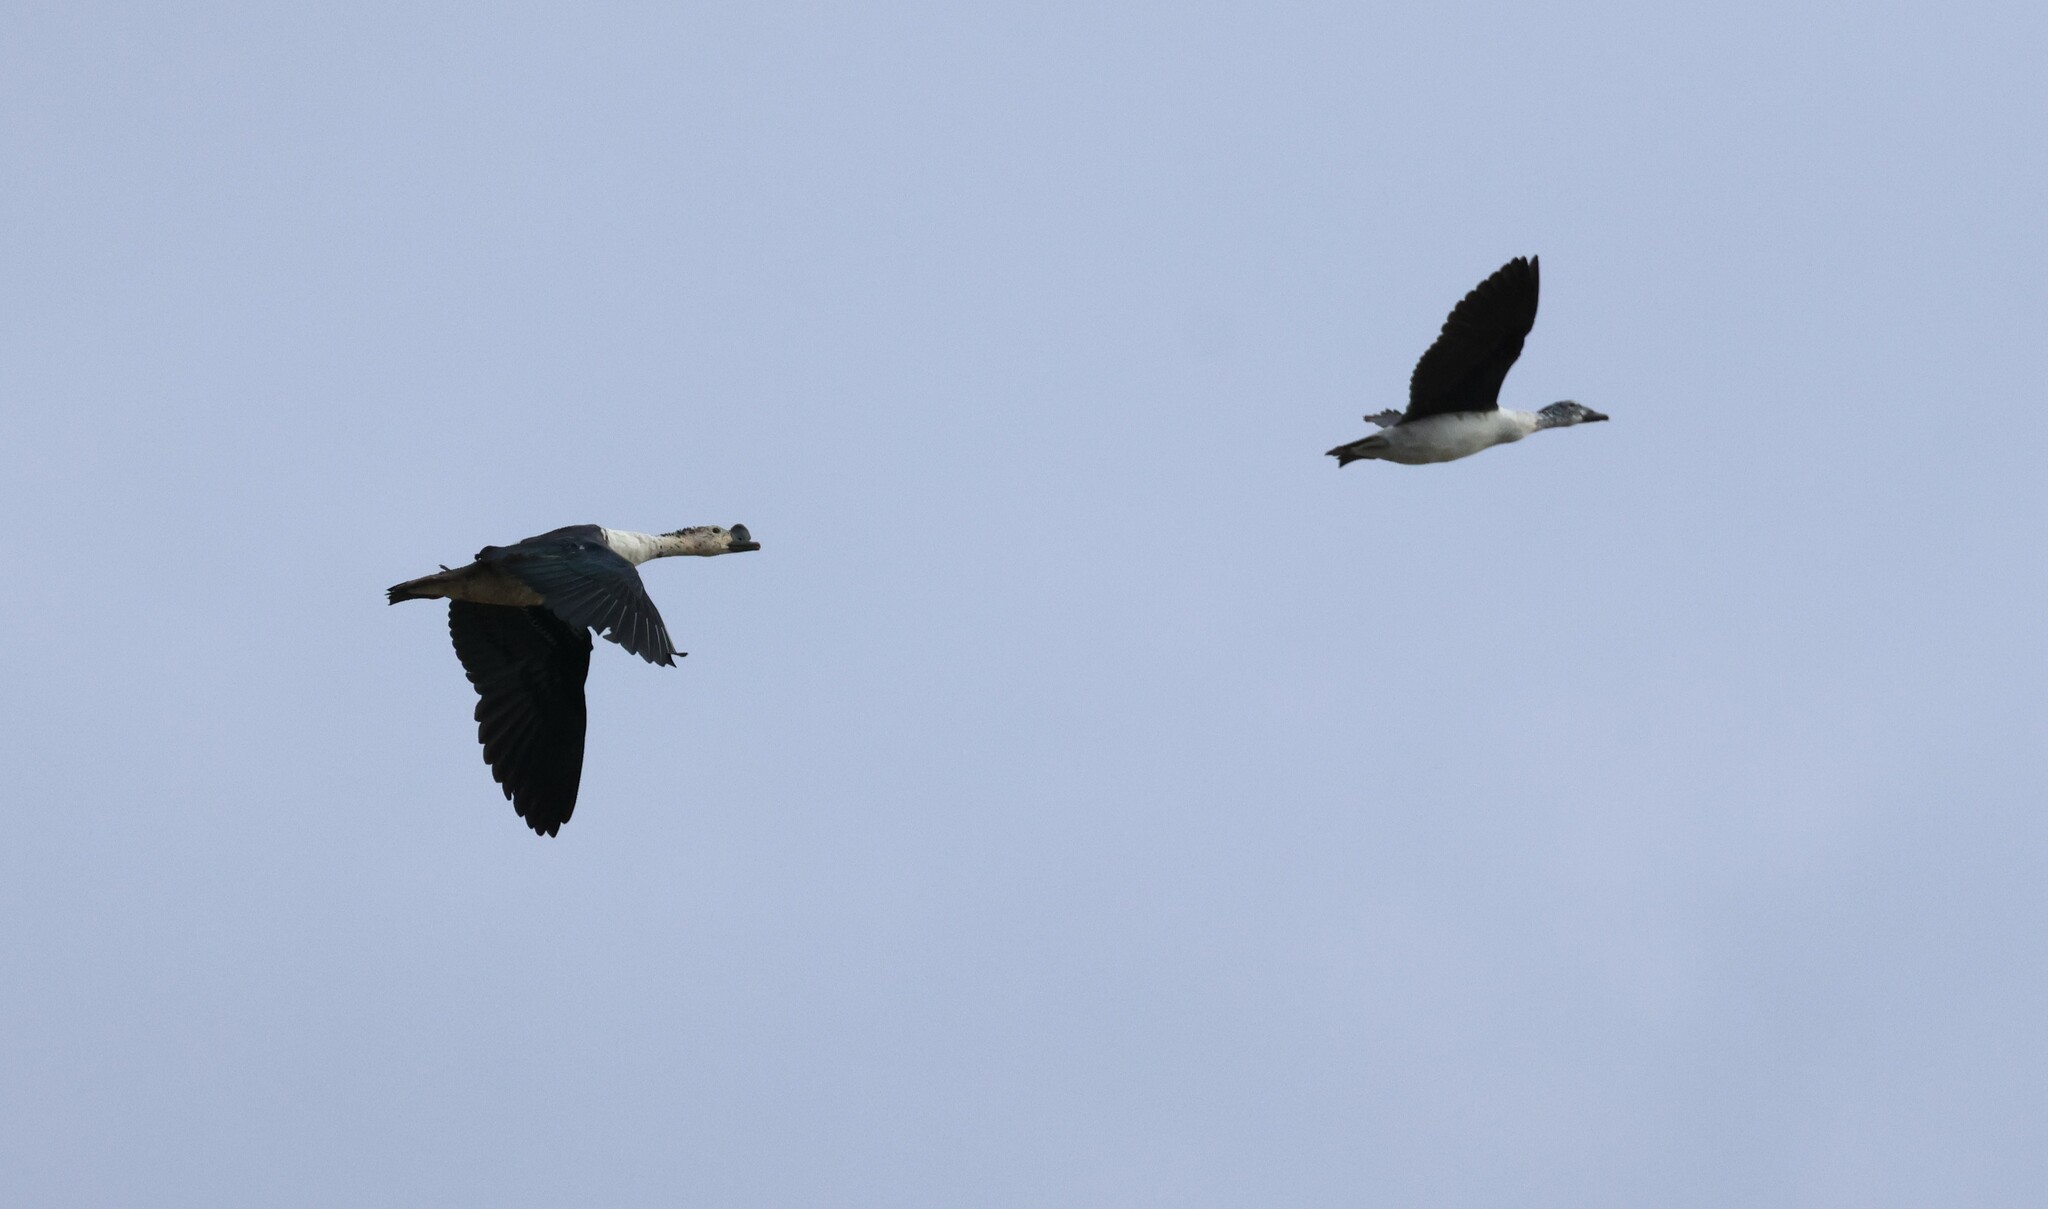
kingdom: Animalia
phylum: Chordata
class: Aves
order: Anseriformes
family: Anatidae
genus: Sarkidiornis
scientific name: Sarkidiornis melanotos
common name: Comb duck
